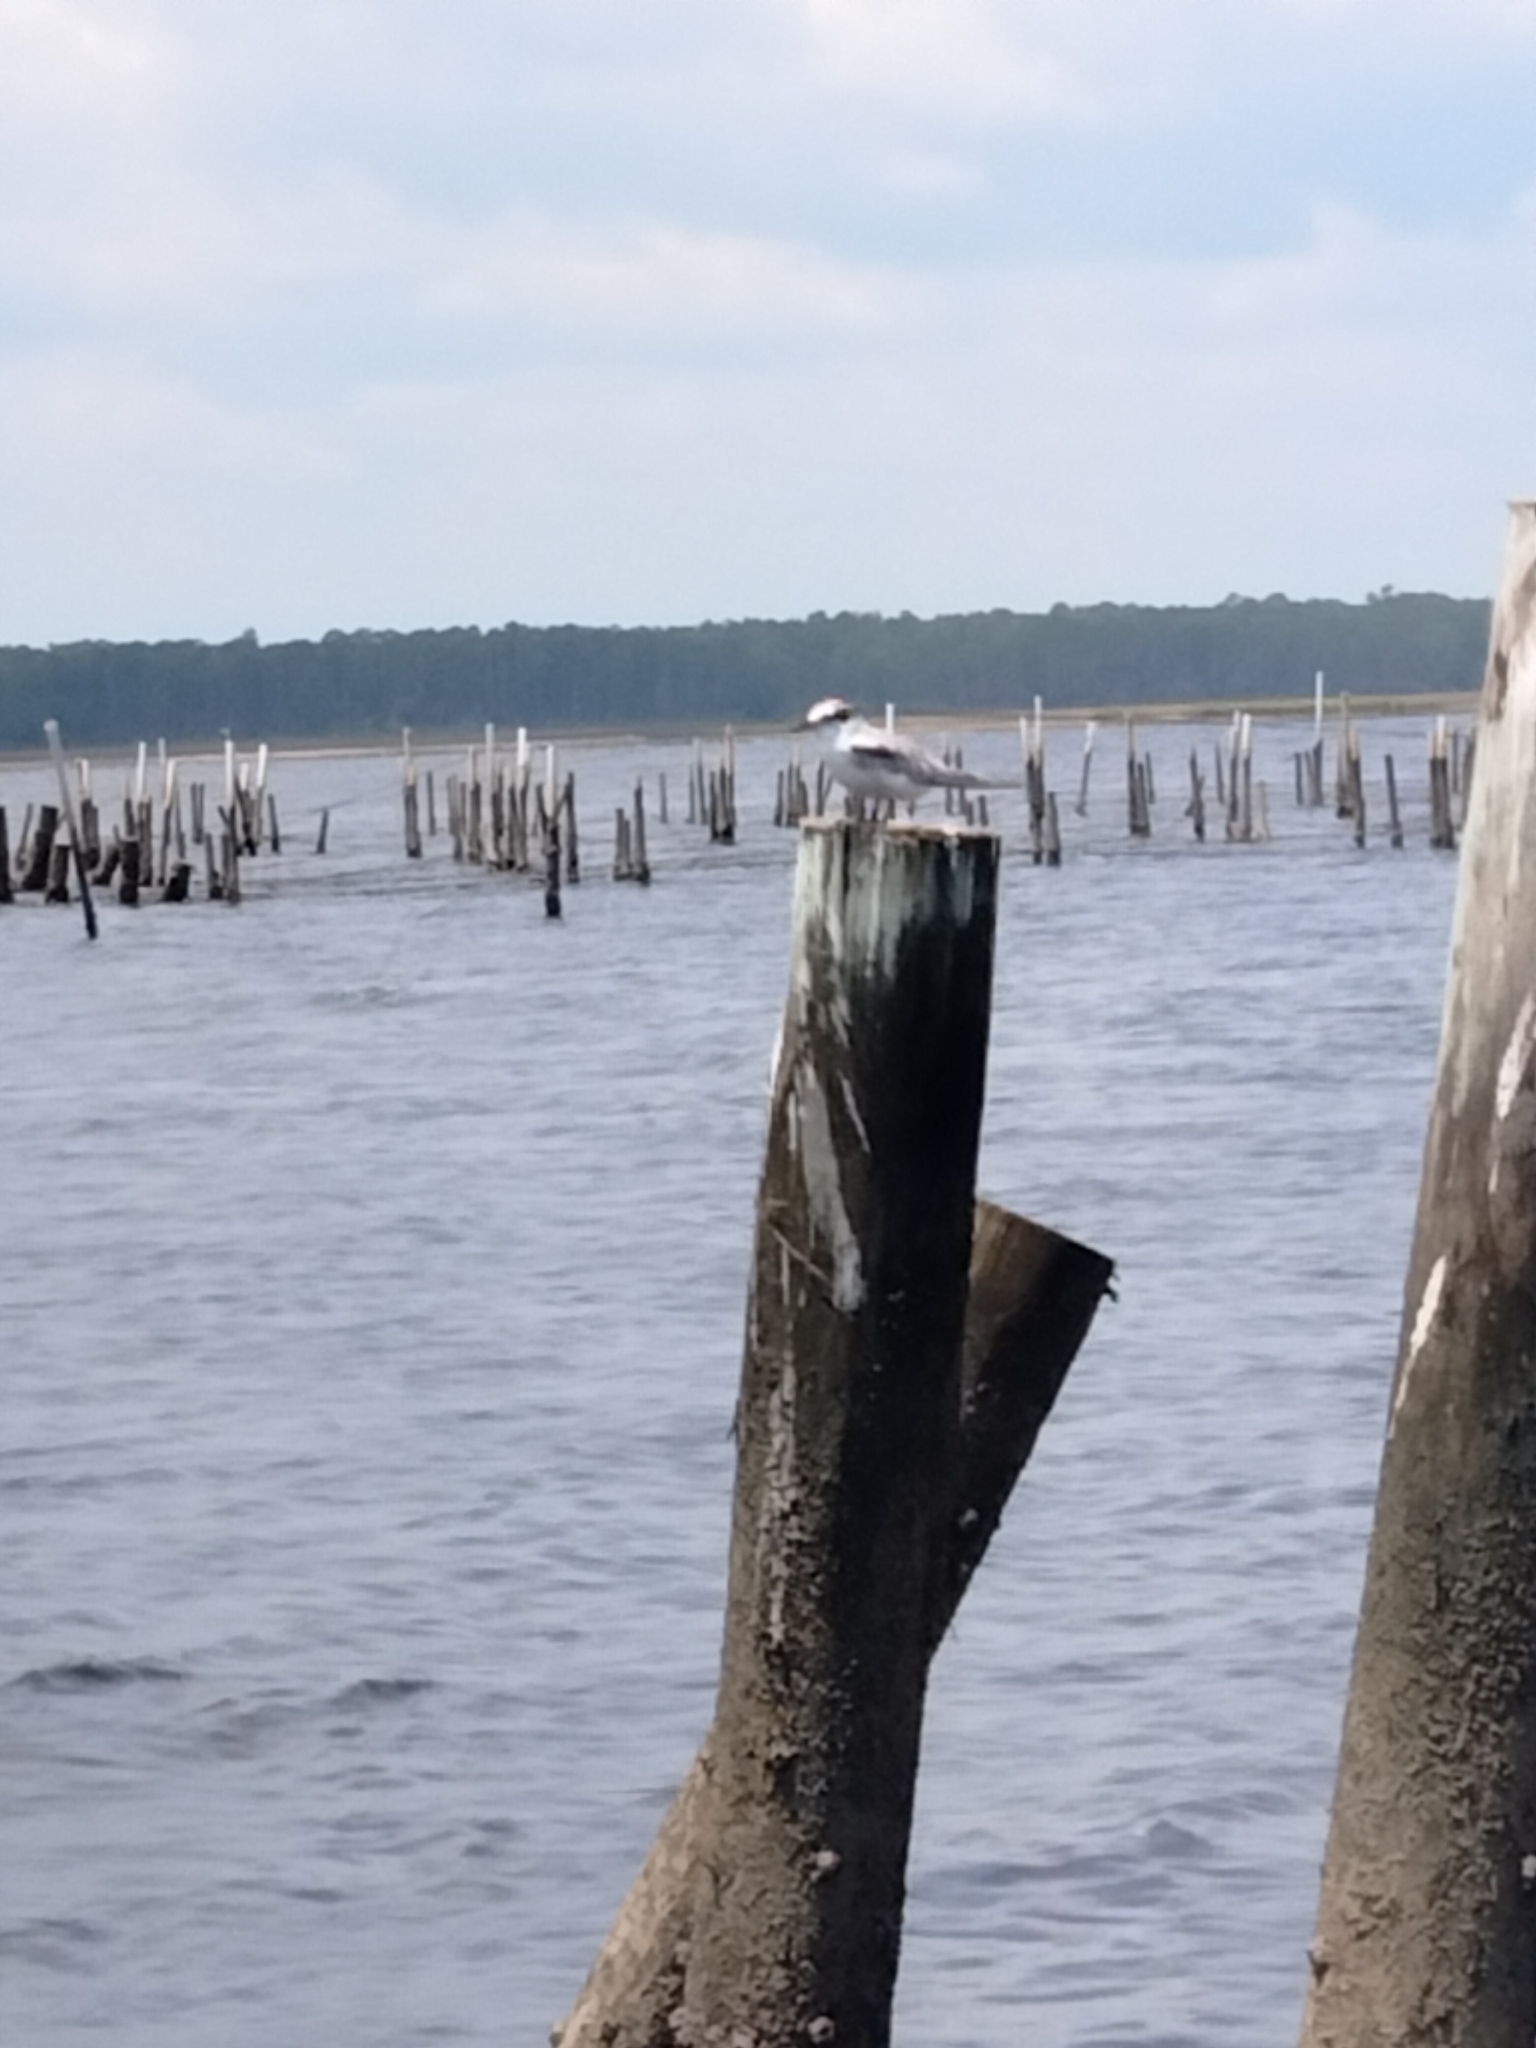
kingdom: Animalia
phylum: Chordata
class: Aves
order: Charadriiformes
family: Laridae
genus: Sternula
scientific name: Sternula antillarum
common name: Least tern
